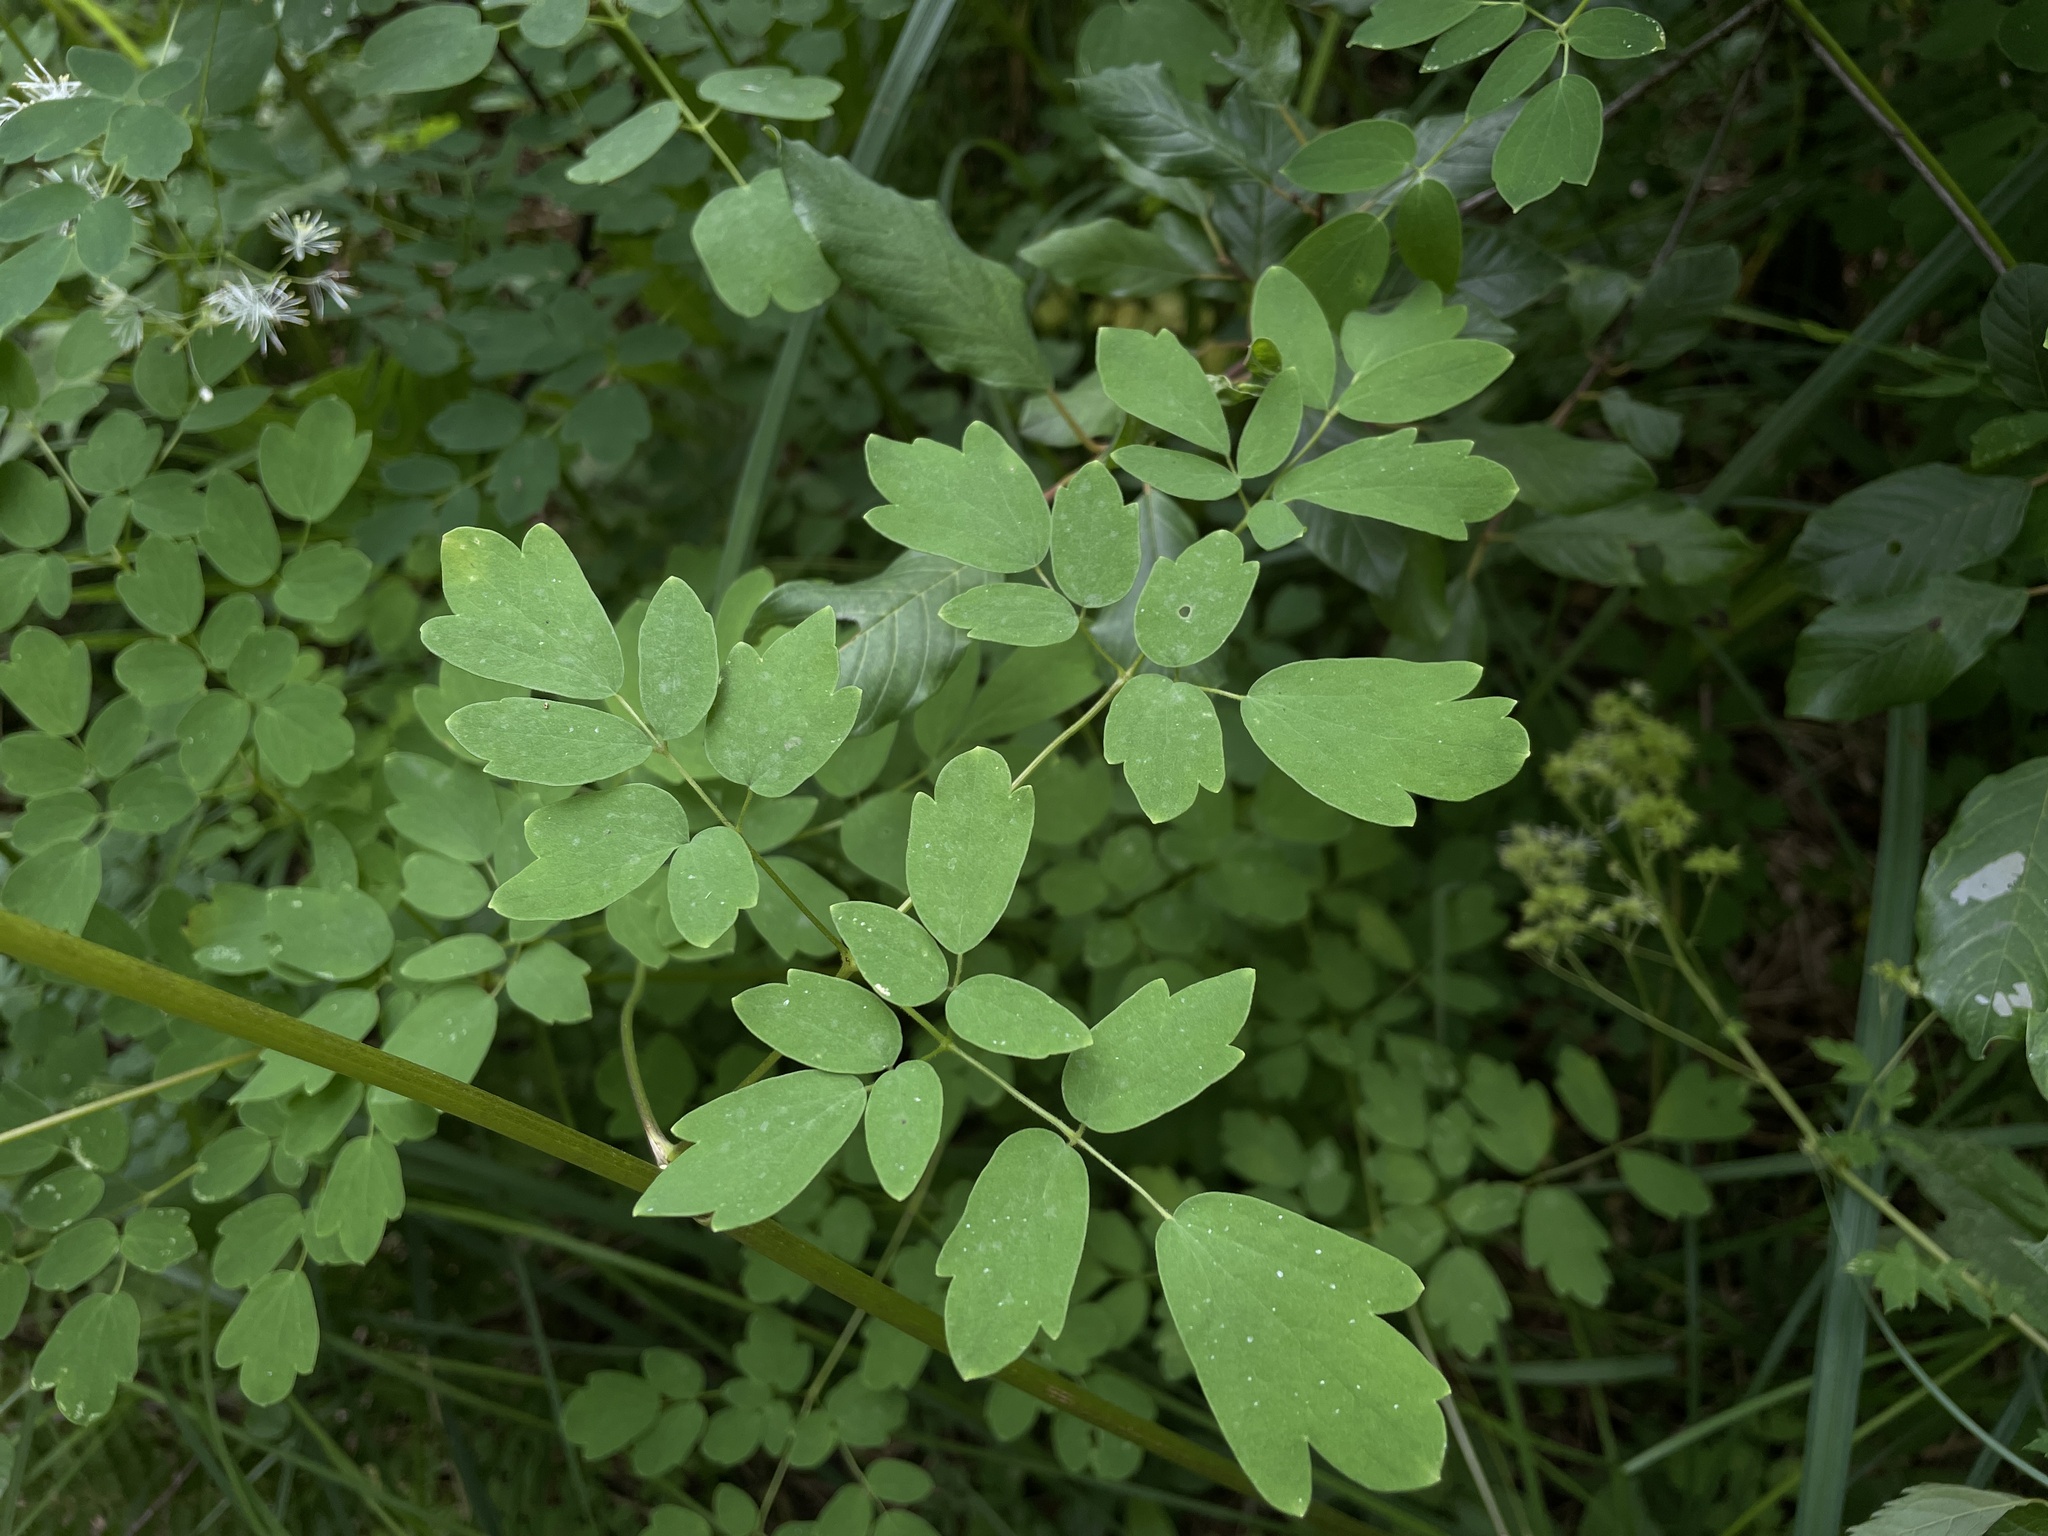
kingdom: Plantae
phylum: Tracheophyta
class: Magnoliopsida
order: Ranunculales
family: Ranunculaceae
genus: Thalictrum
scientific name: Thalictrum pubescens
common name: King-of-the-meadow
